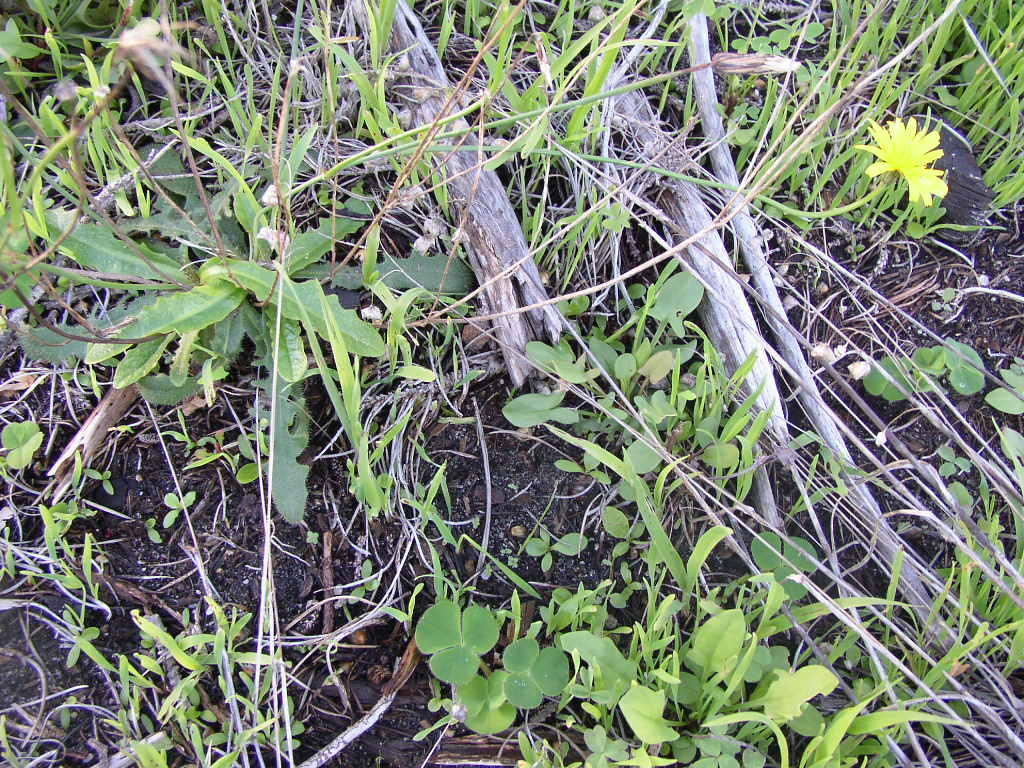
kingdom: Plantae
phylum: Tracheophyta
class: Magnoliopsida
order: Asterales
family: Asteraceae
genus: Hypochaeris
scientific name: Hypochaeris radicata
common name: Flatweed
